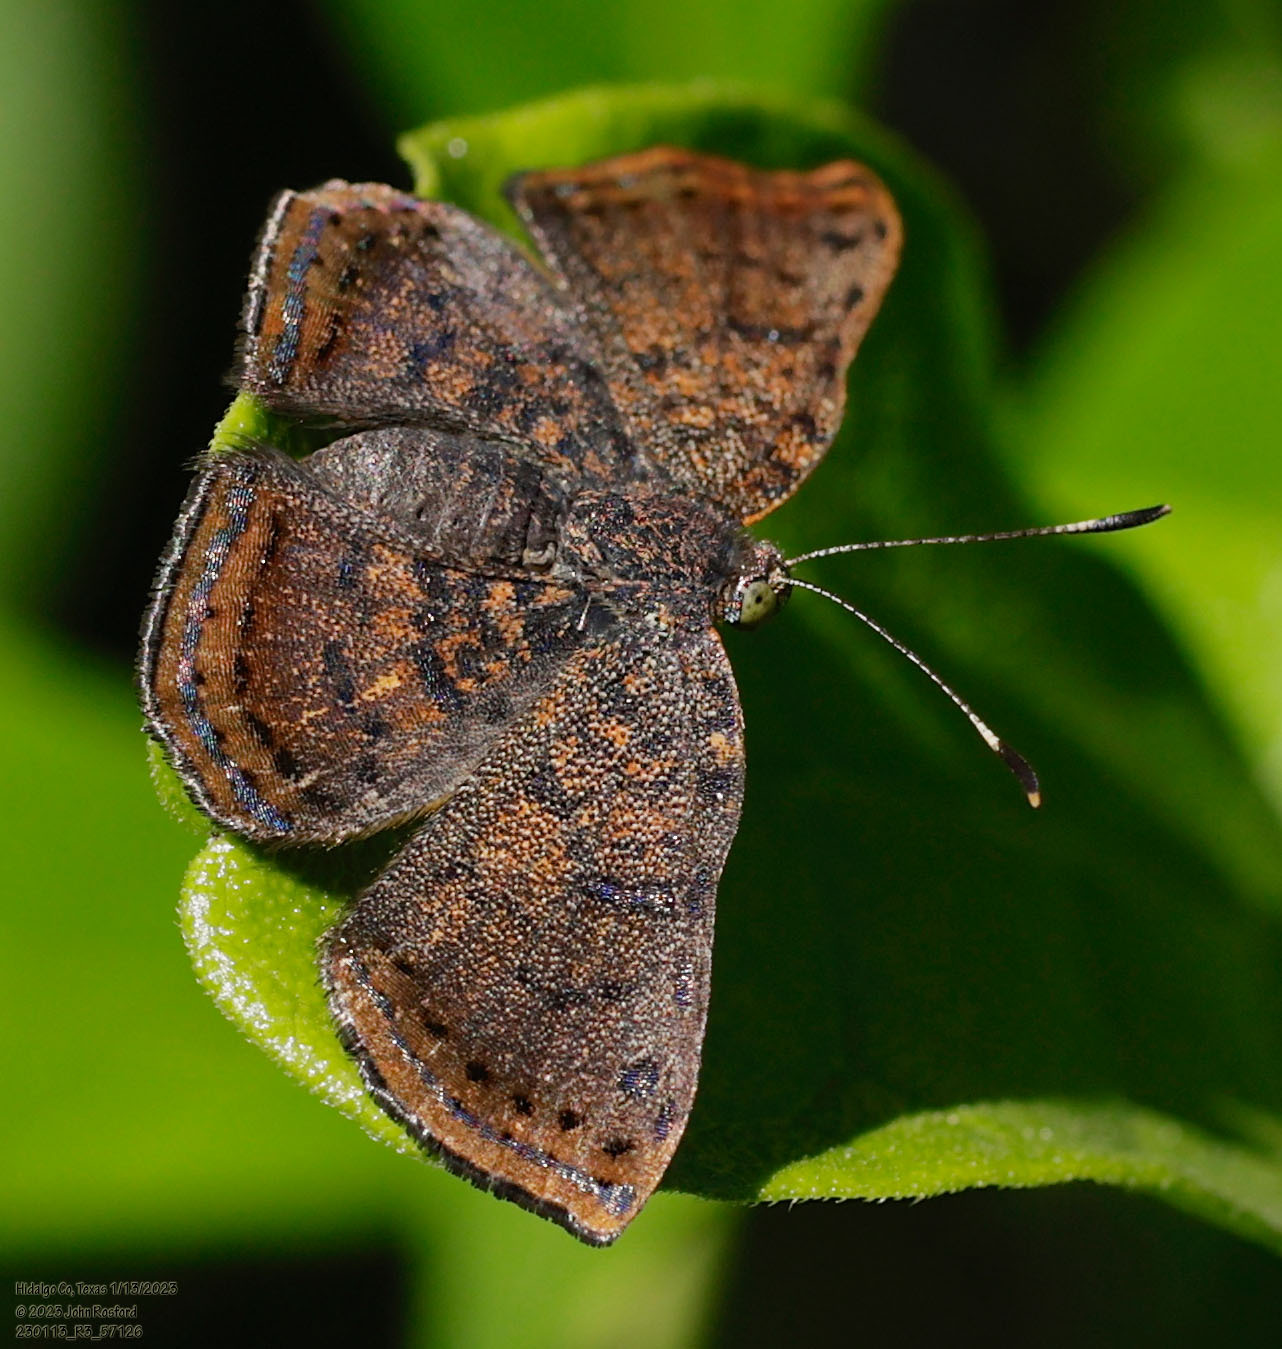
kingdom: Animalia
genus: Caria
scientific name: Caria ino
